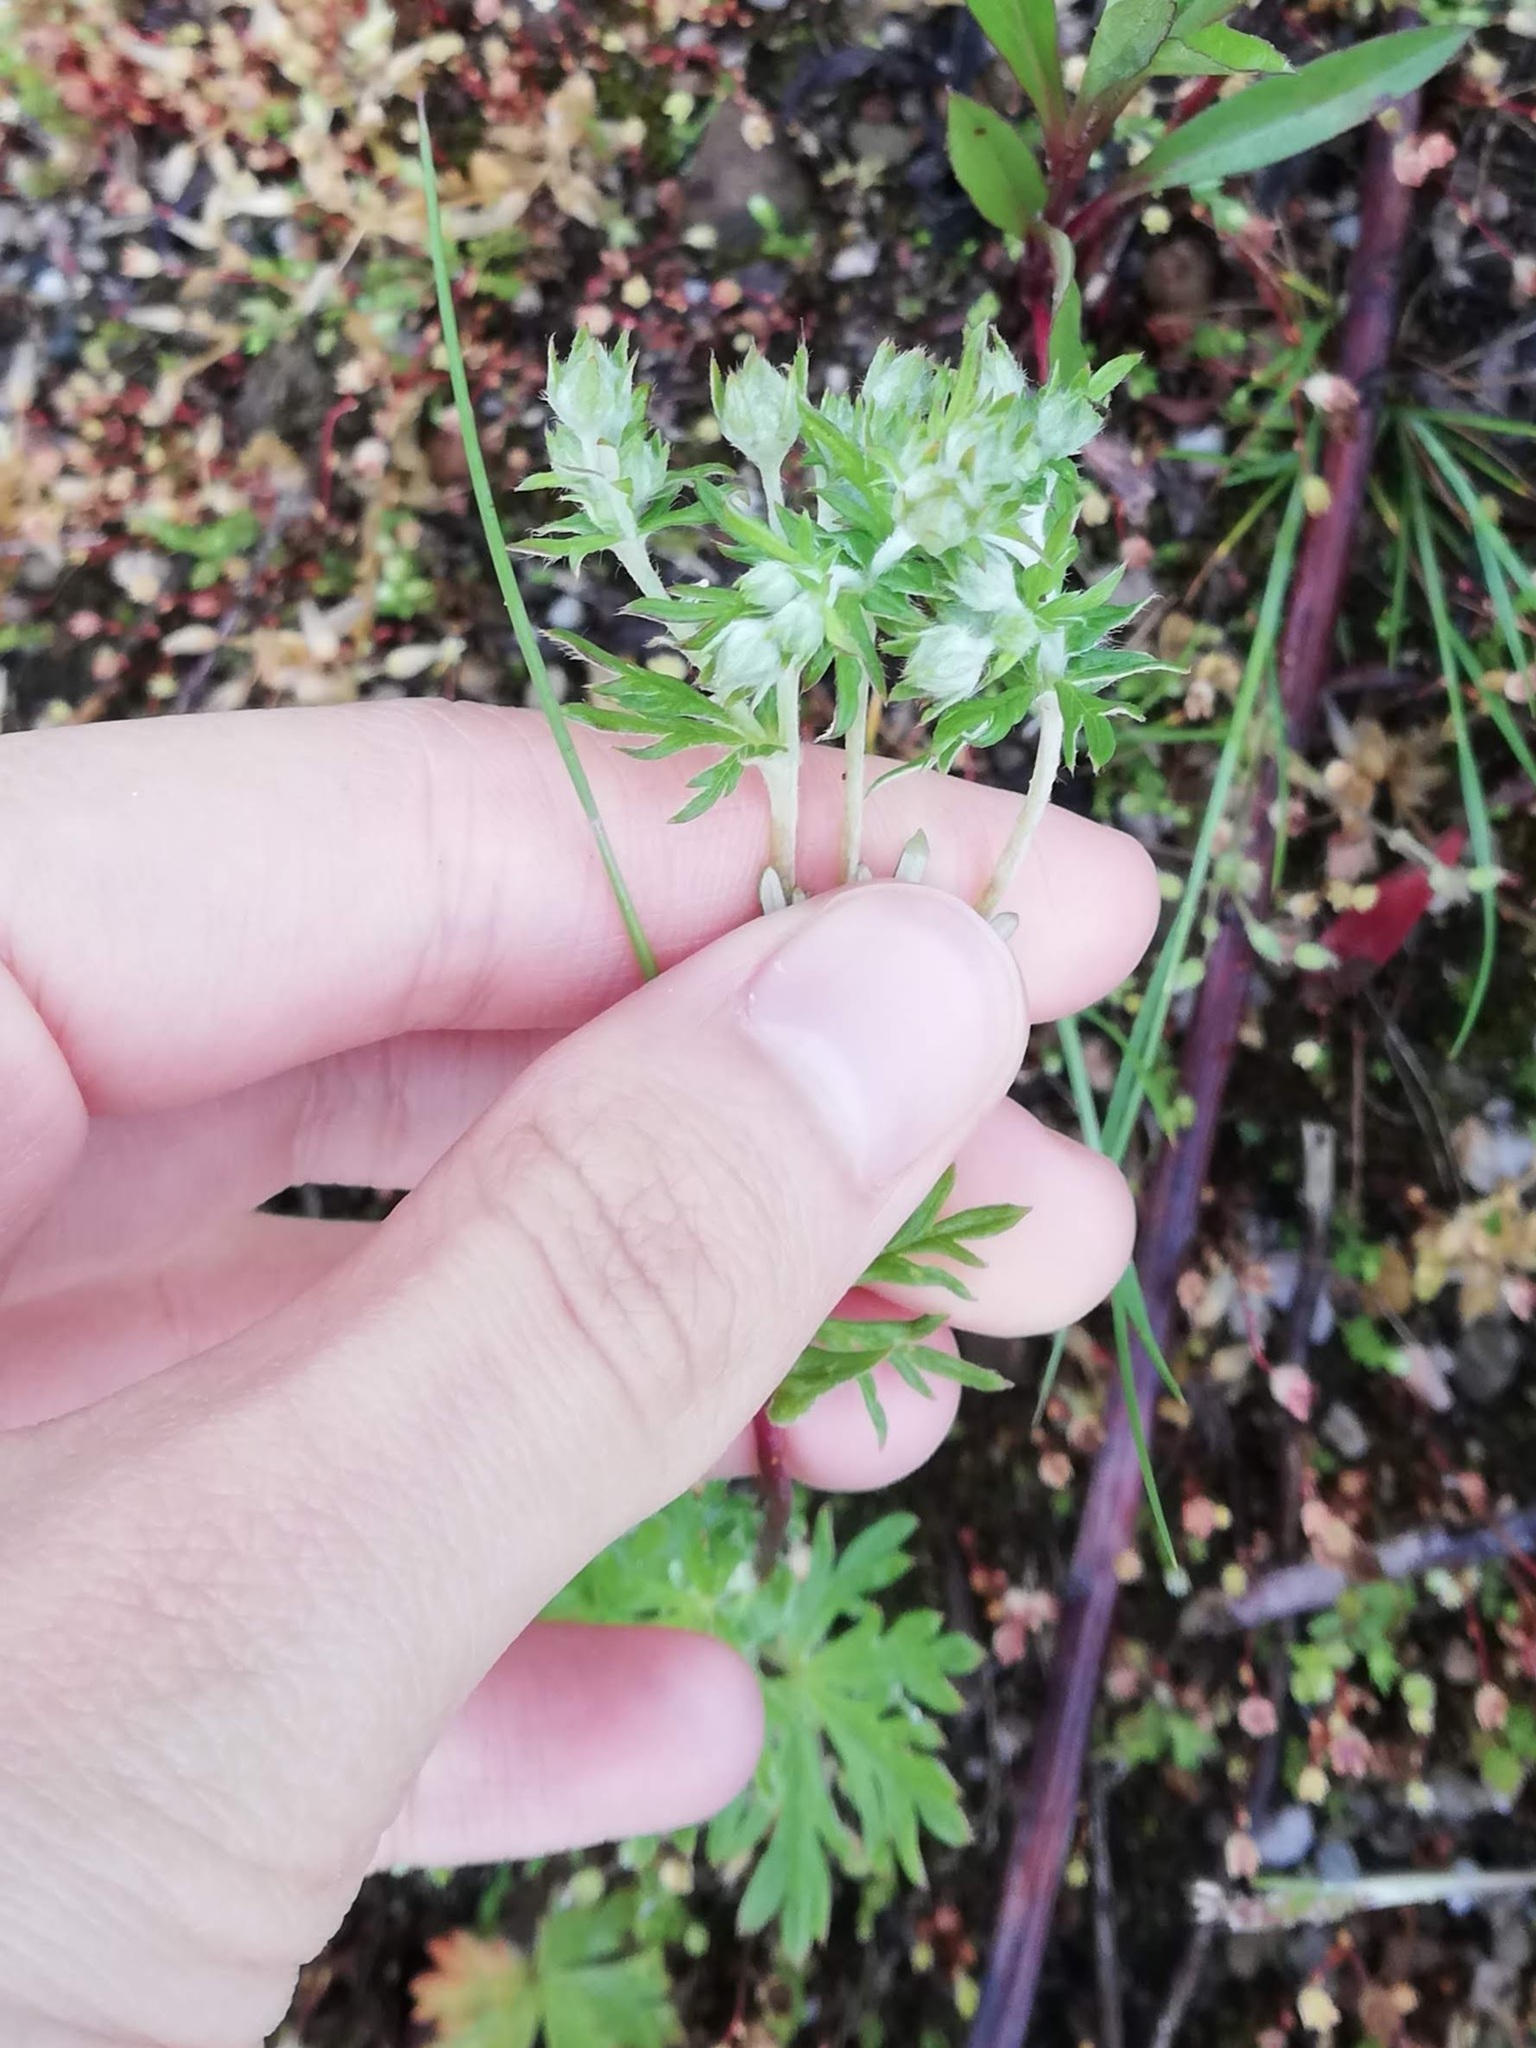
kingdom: Plantae
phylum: Tracheophyta
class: Magnoliopsida
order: Rosales
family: Rosaceae
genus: Potentilla
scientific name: Potentilla argentea
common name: Hoary cinquefoil
